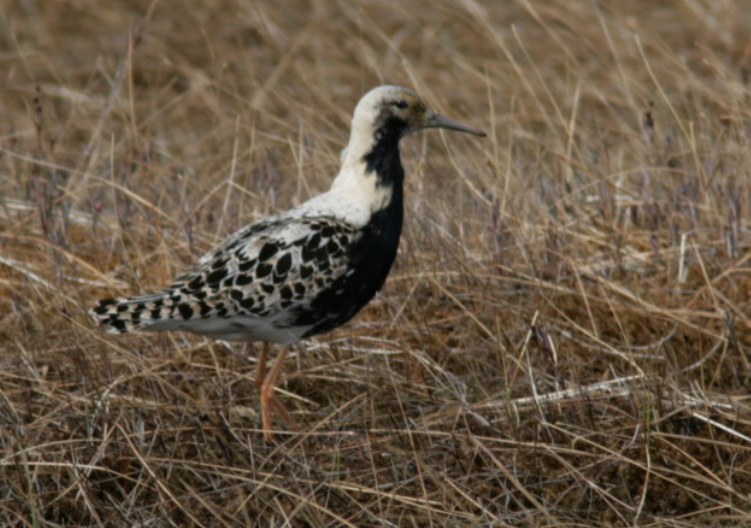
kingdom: Animalia
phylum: Chordata
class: Aves
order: Charadriiformes
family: Scolopacidae
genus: Calidris
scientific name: Calidris pugnax
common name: Ruff
